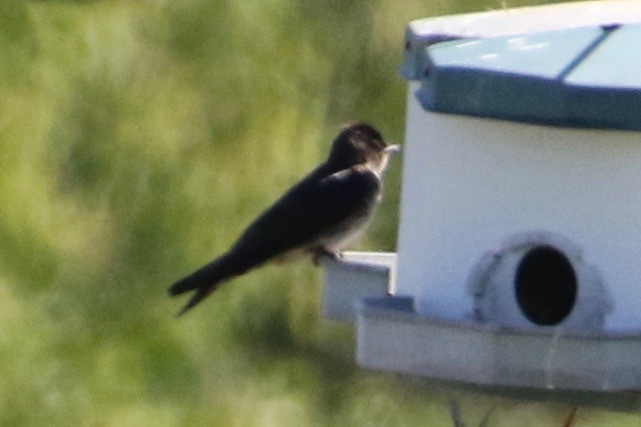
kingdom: Animalia
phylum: Chordata
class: Aves
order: Passeriformes
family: Hirundinidae
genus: Progne
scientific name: Progne subis
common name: Purple martin
